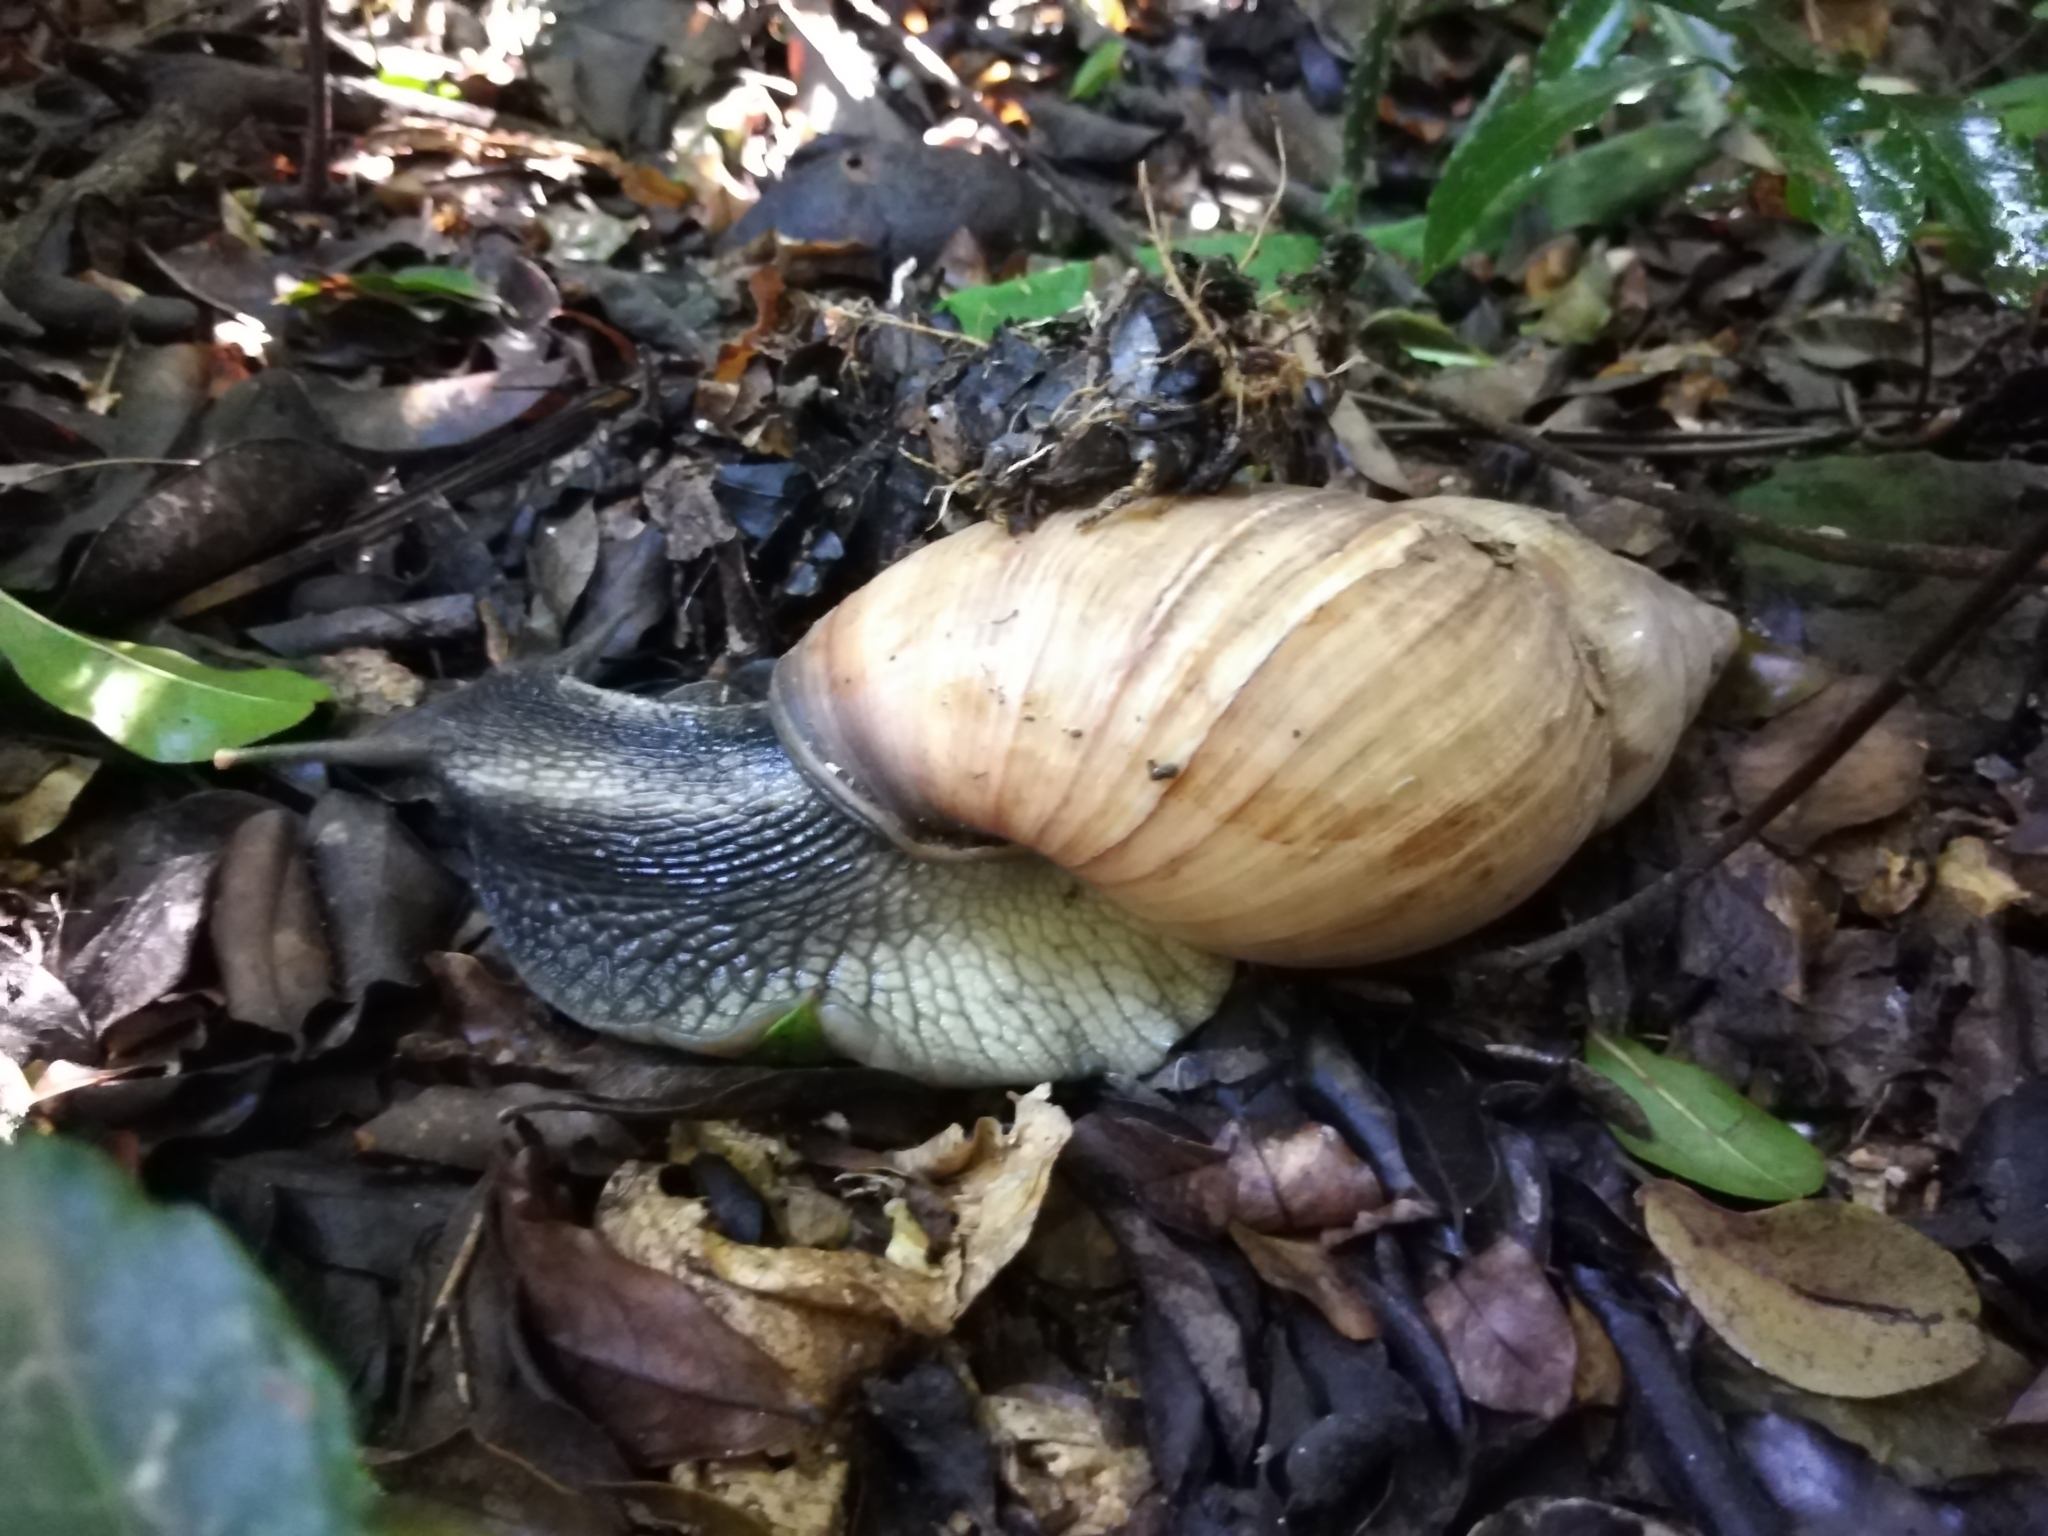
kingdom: Animalia
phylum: Mollusca
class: Gastropoda
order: Stylommatophora
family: Achatinidae
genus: Metachatina
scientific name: Metachatina kraussi
